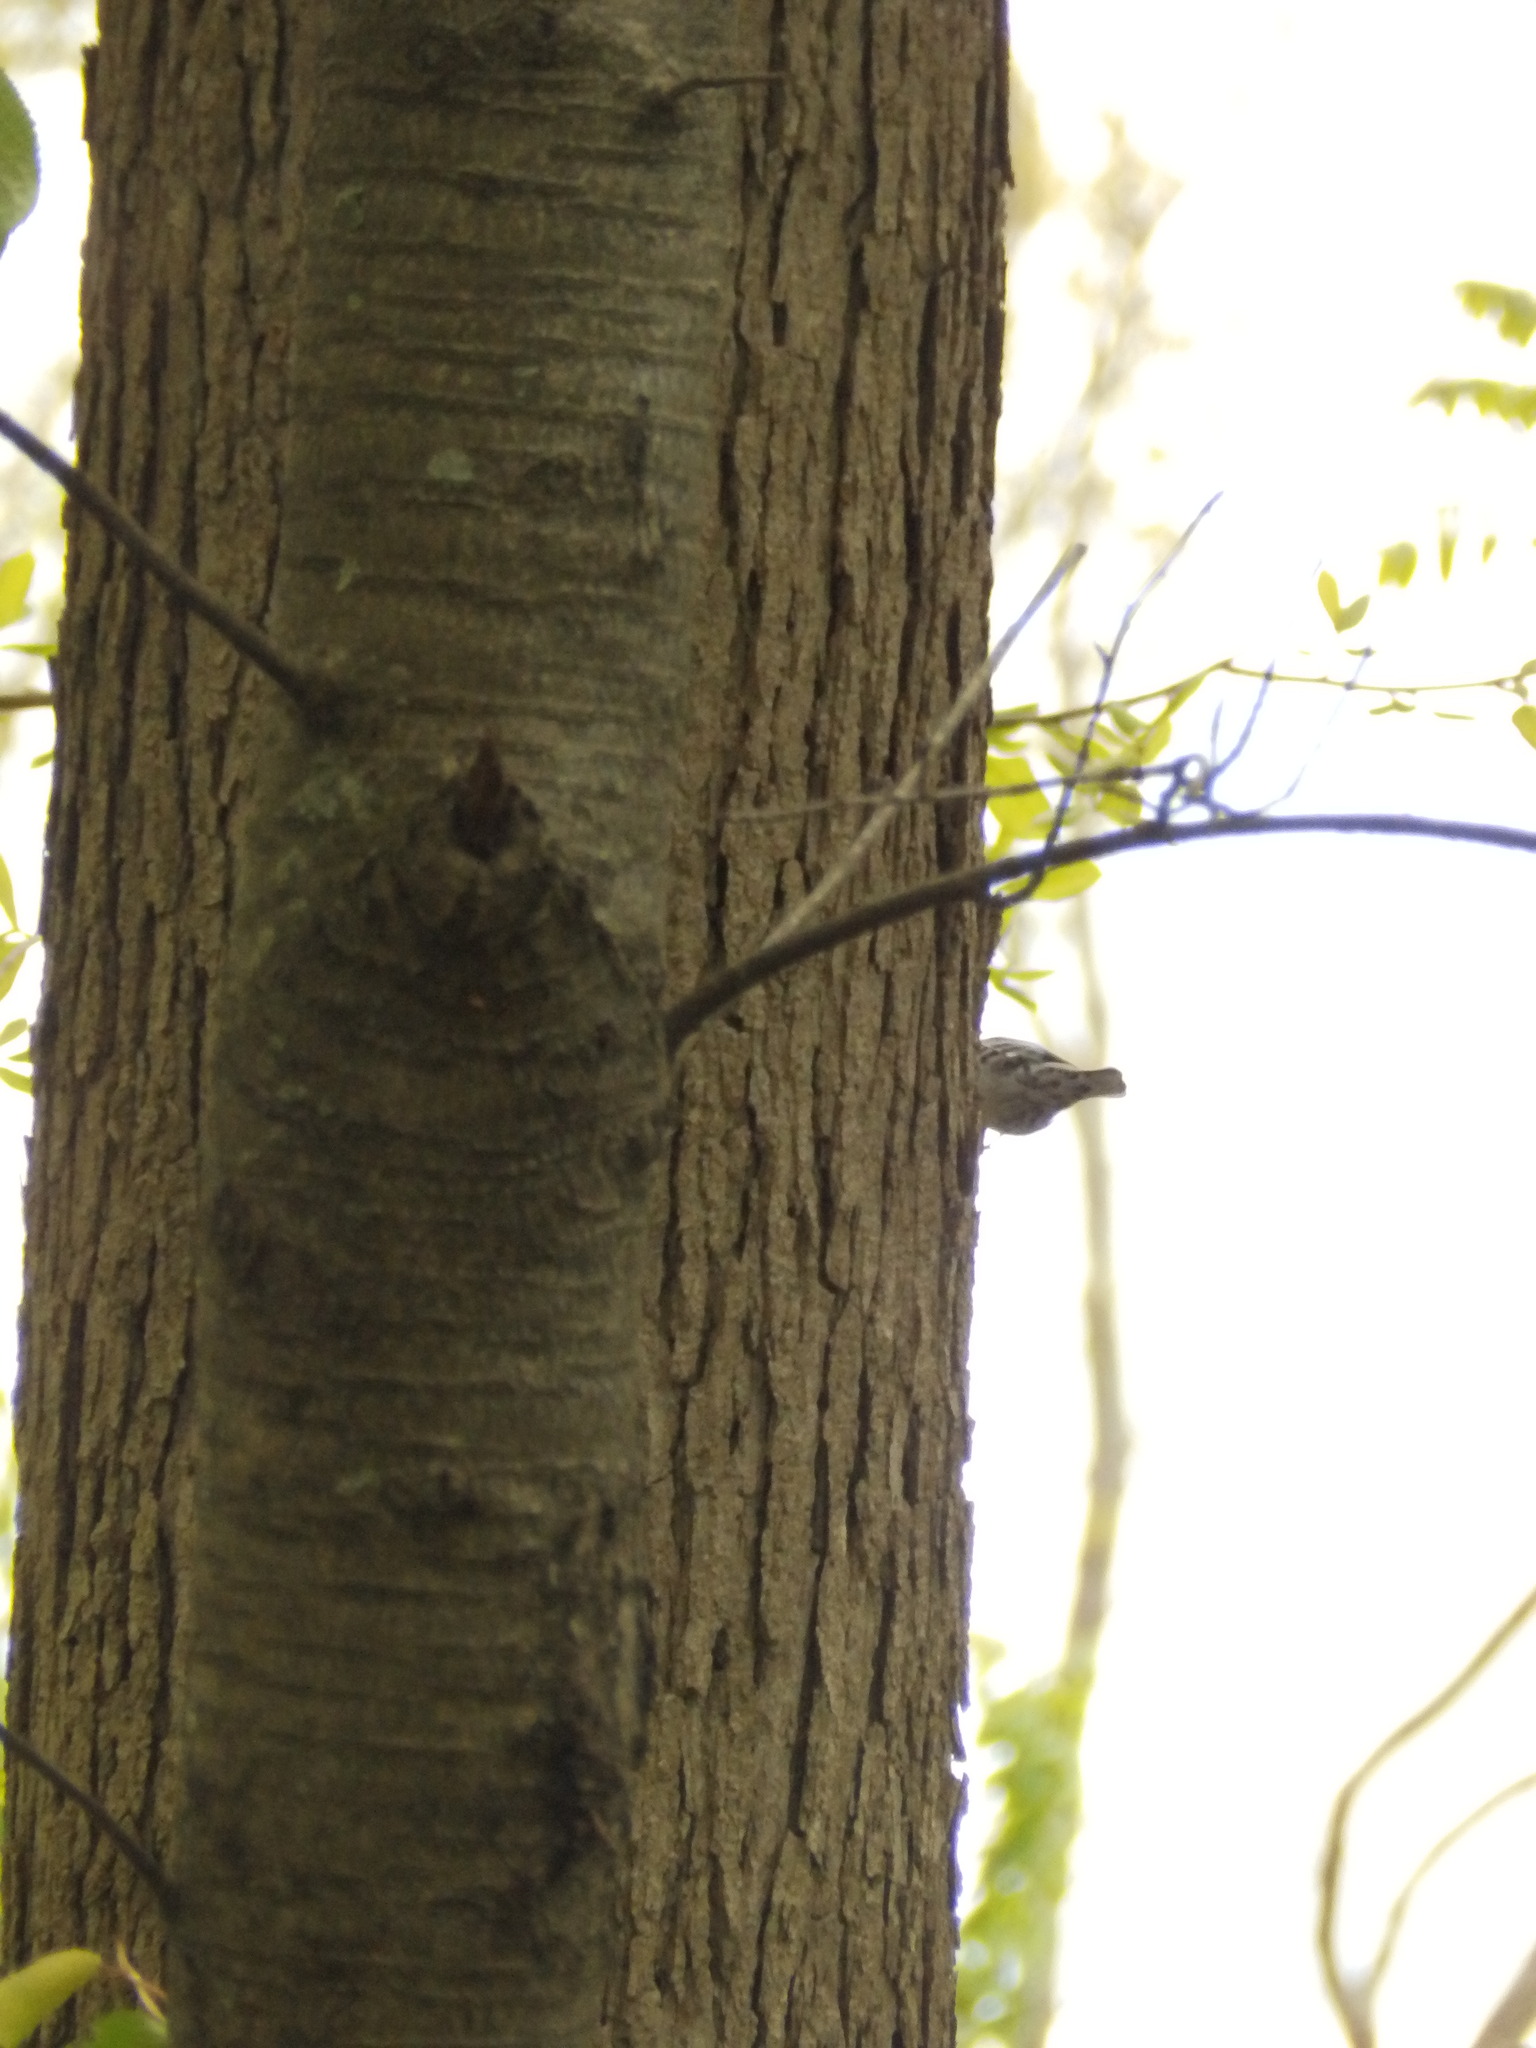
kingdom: Animalia
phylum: Chordata
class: Aves
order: Passeriformes
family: Parulidae
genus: Mniotilta
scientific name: Mniotilta varia
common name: Black-and-white warbler
